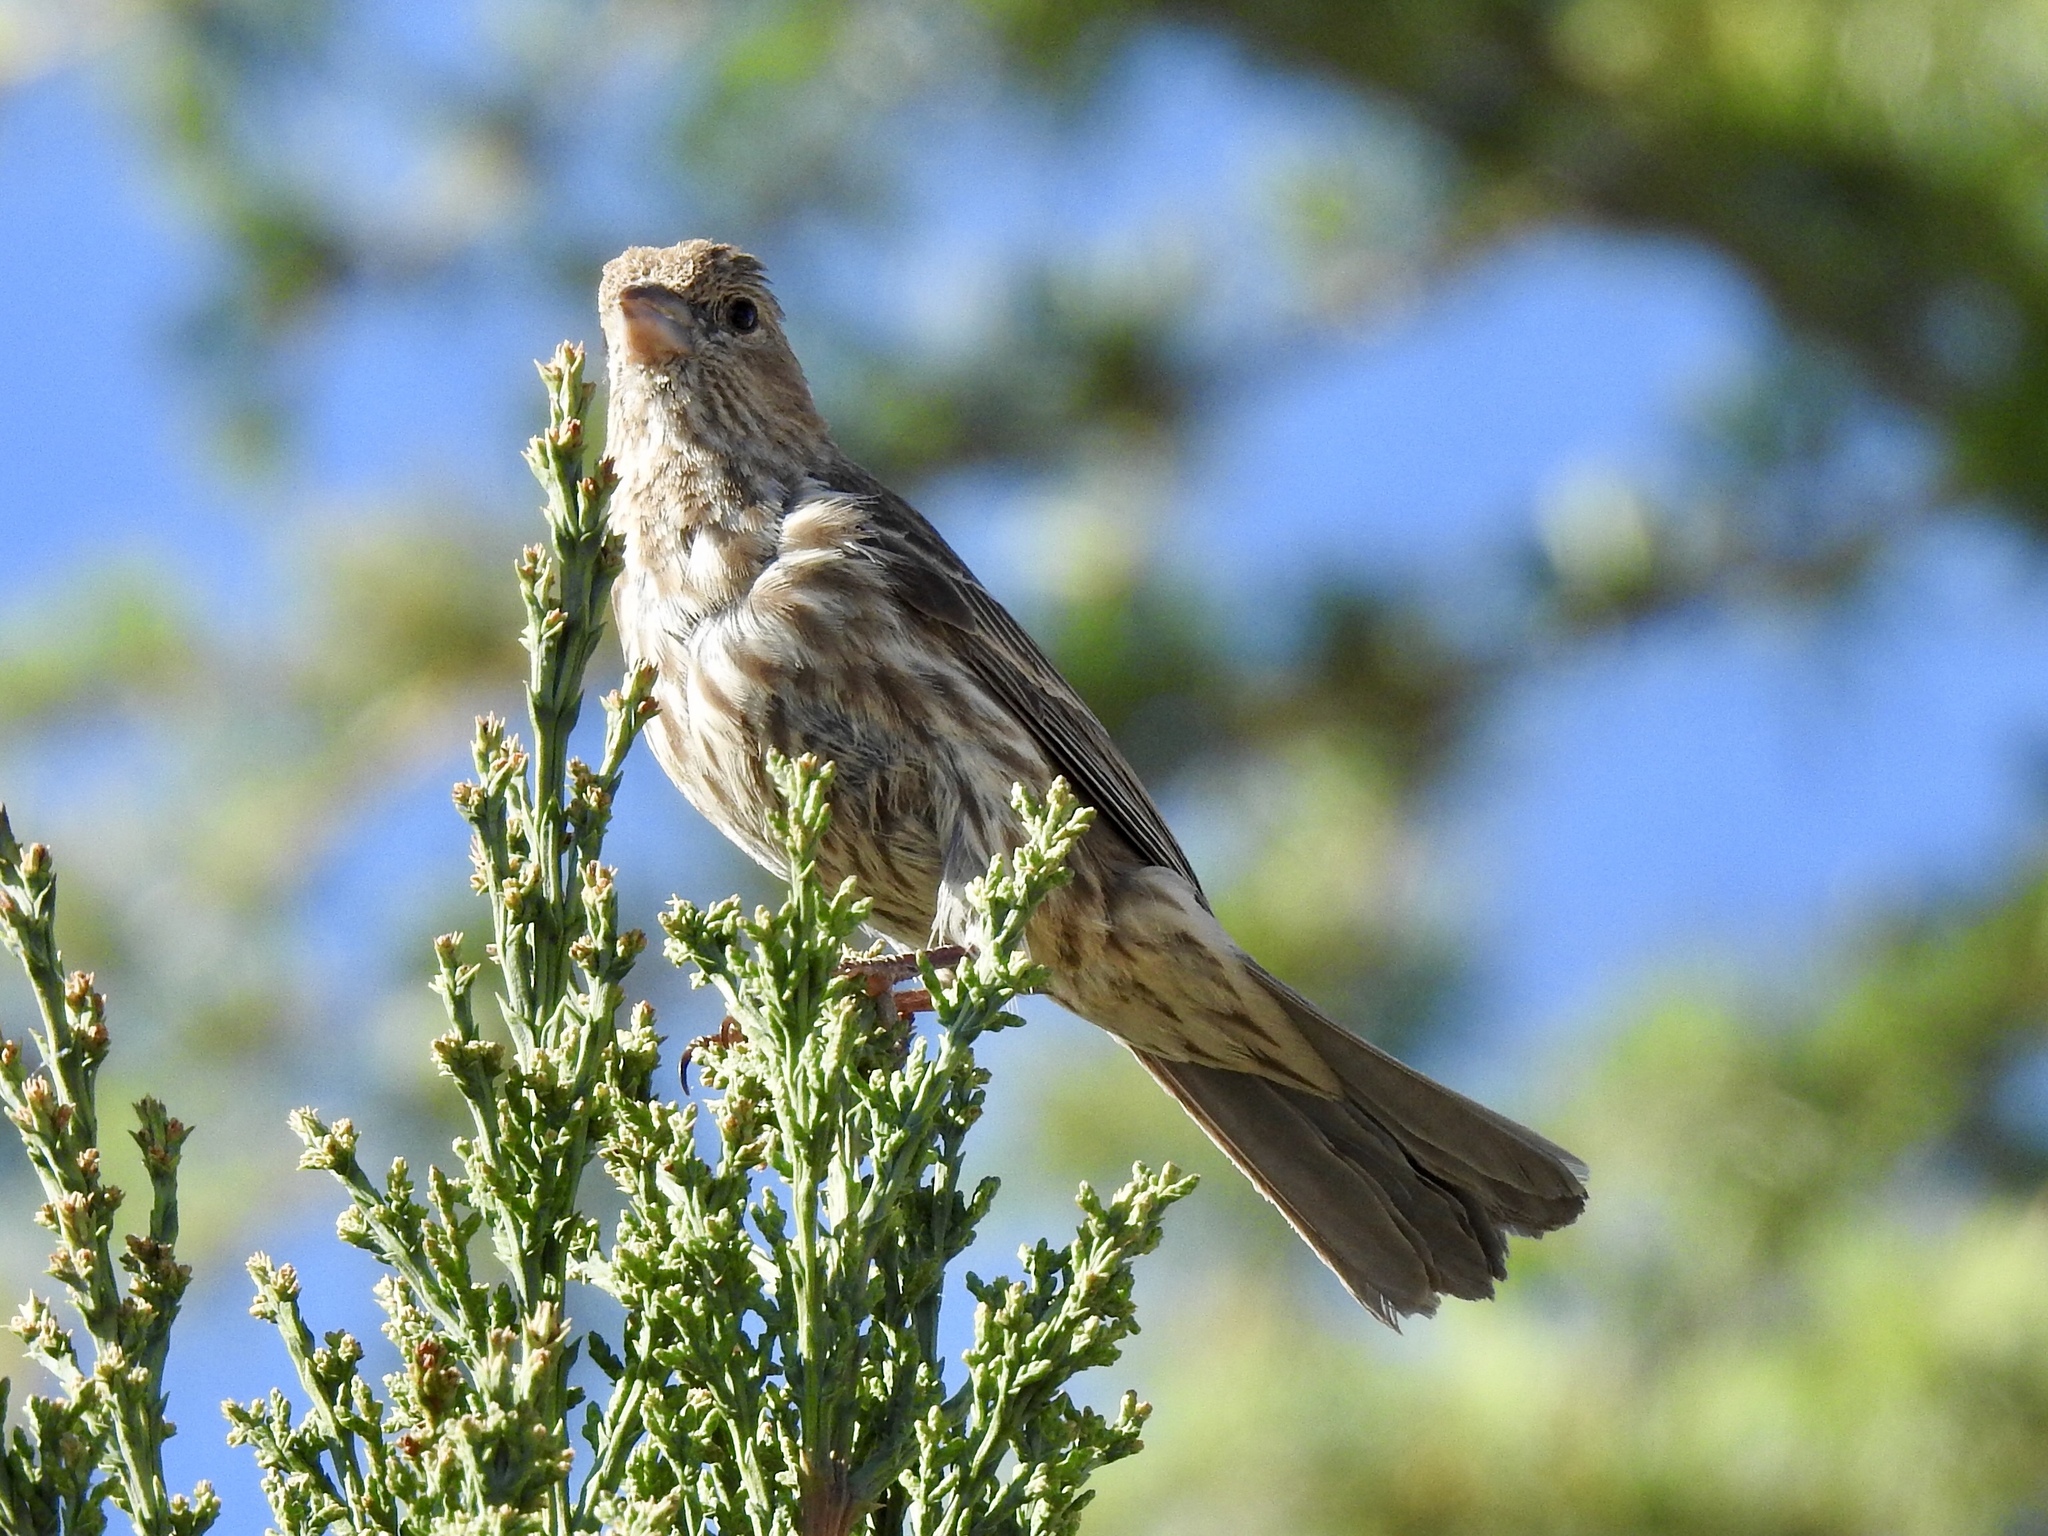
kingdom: Animalia
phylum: Chordata
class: Aves
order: Passeriformes
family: Fringillidae
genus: Haemorhous
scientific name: Haemorhous mexicanus
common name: House finch
